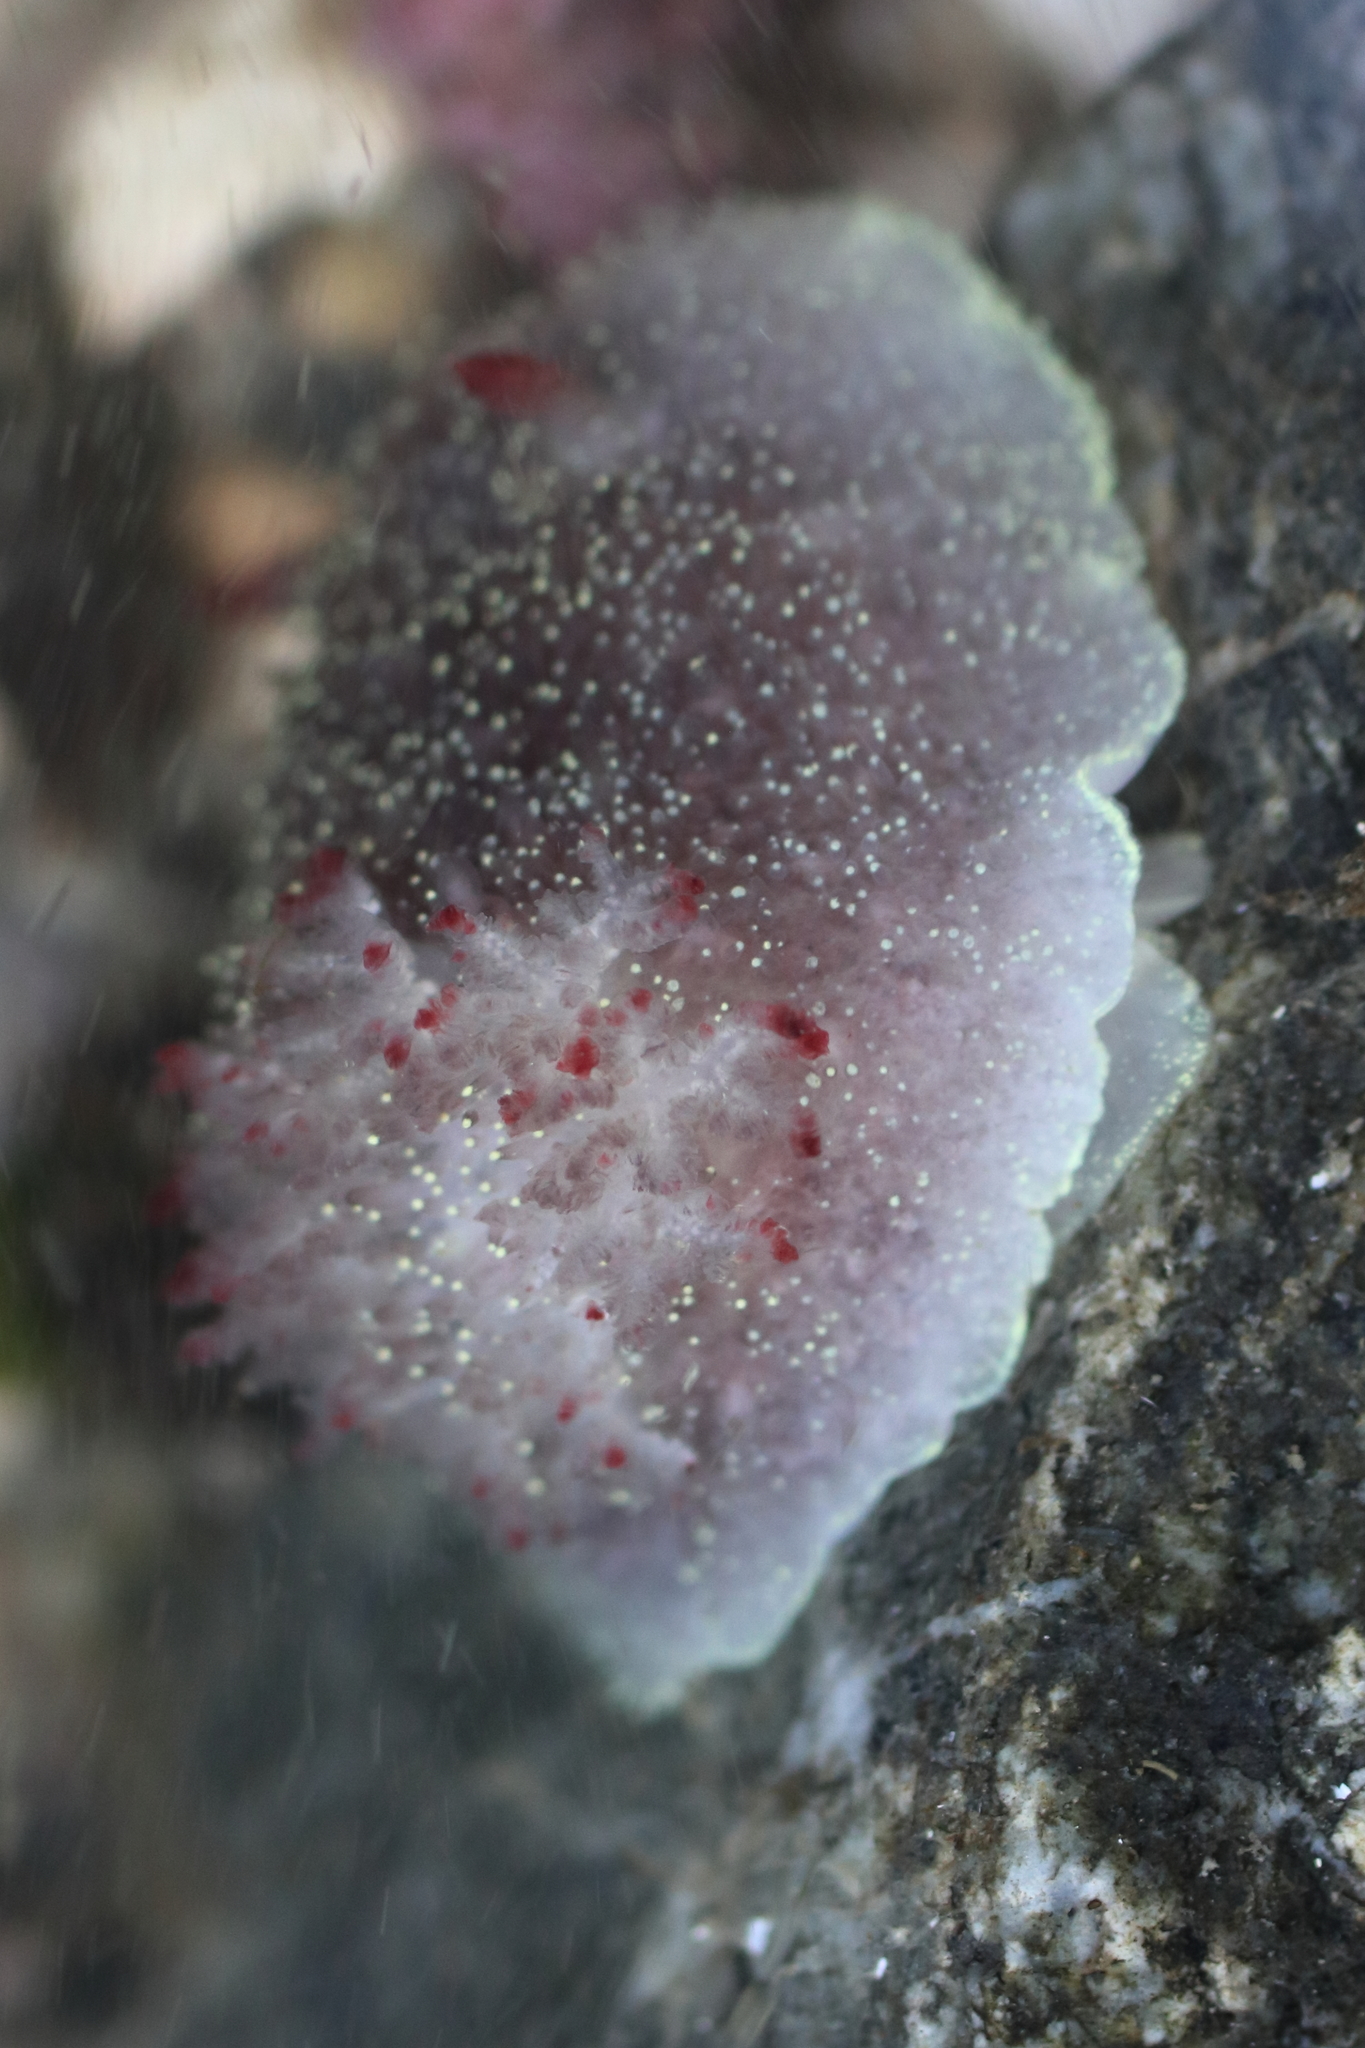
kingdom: Animalia
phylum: Mollusca
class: Gastropoda
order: Nudibranchia
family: Onchidorididae
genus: Acanthodoris
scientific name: Acanthodoris nanaimoensis
